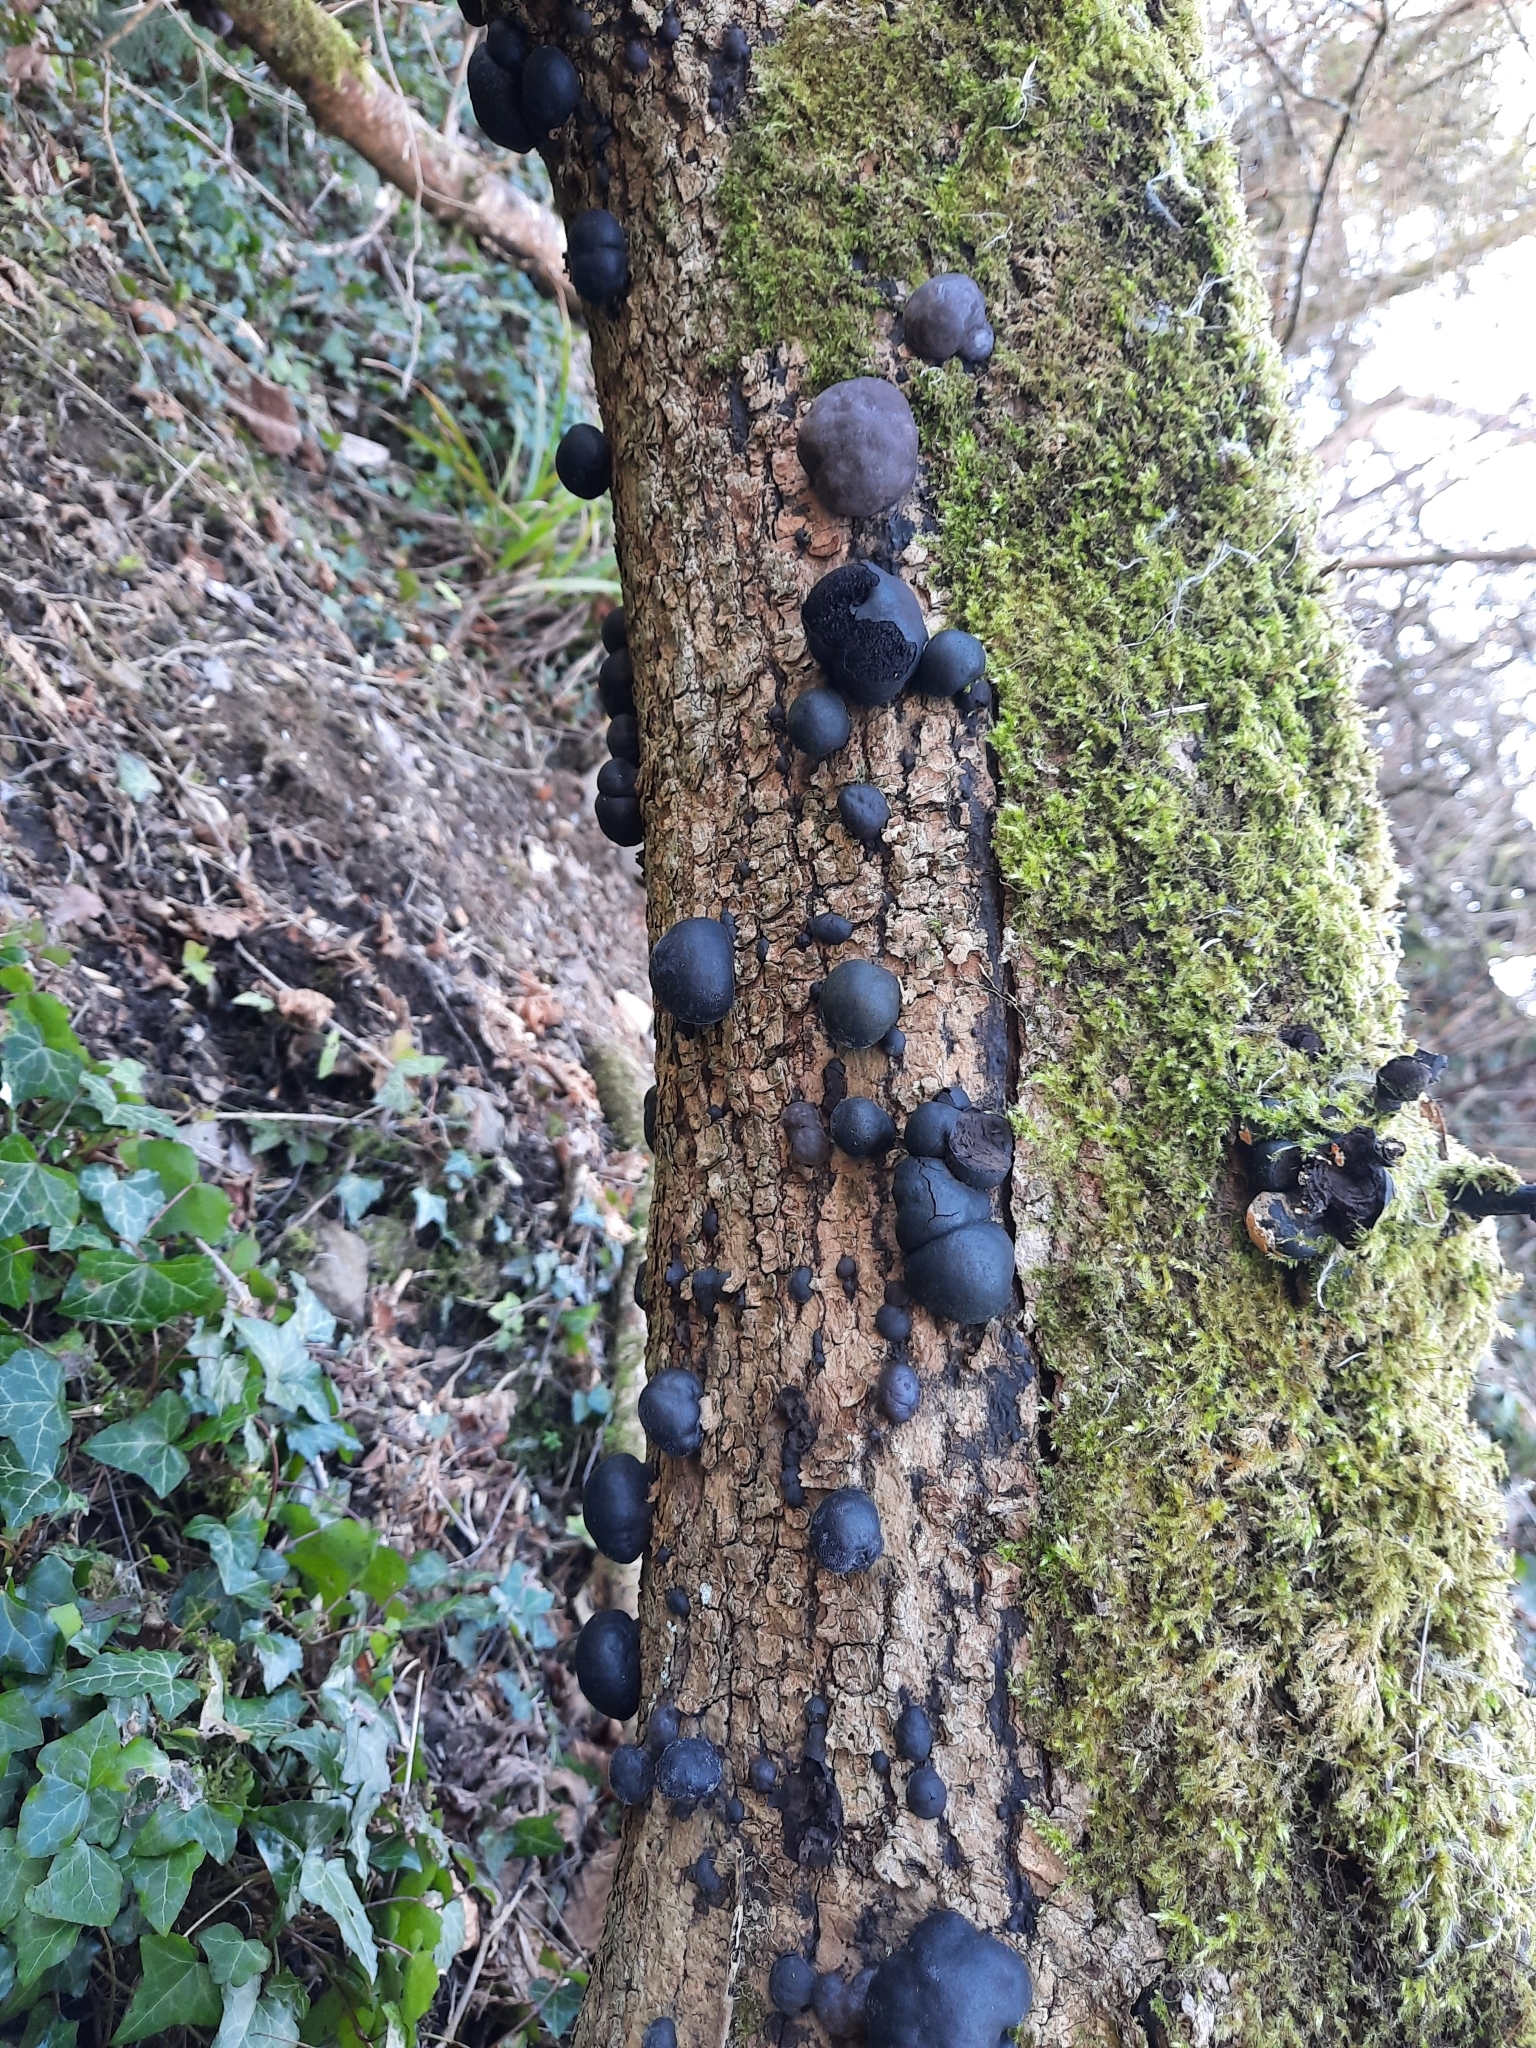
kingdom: Fungi
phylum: Ascomycota
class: Sordariomycetes
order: Xylariales
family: Hypoxylaceae
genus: Daldinia
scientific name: Daldinia concentrica
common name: Cramp balls
